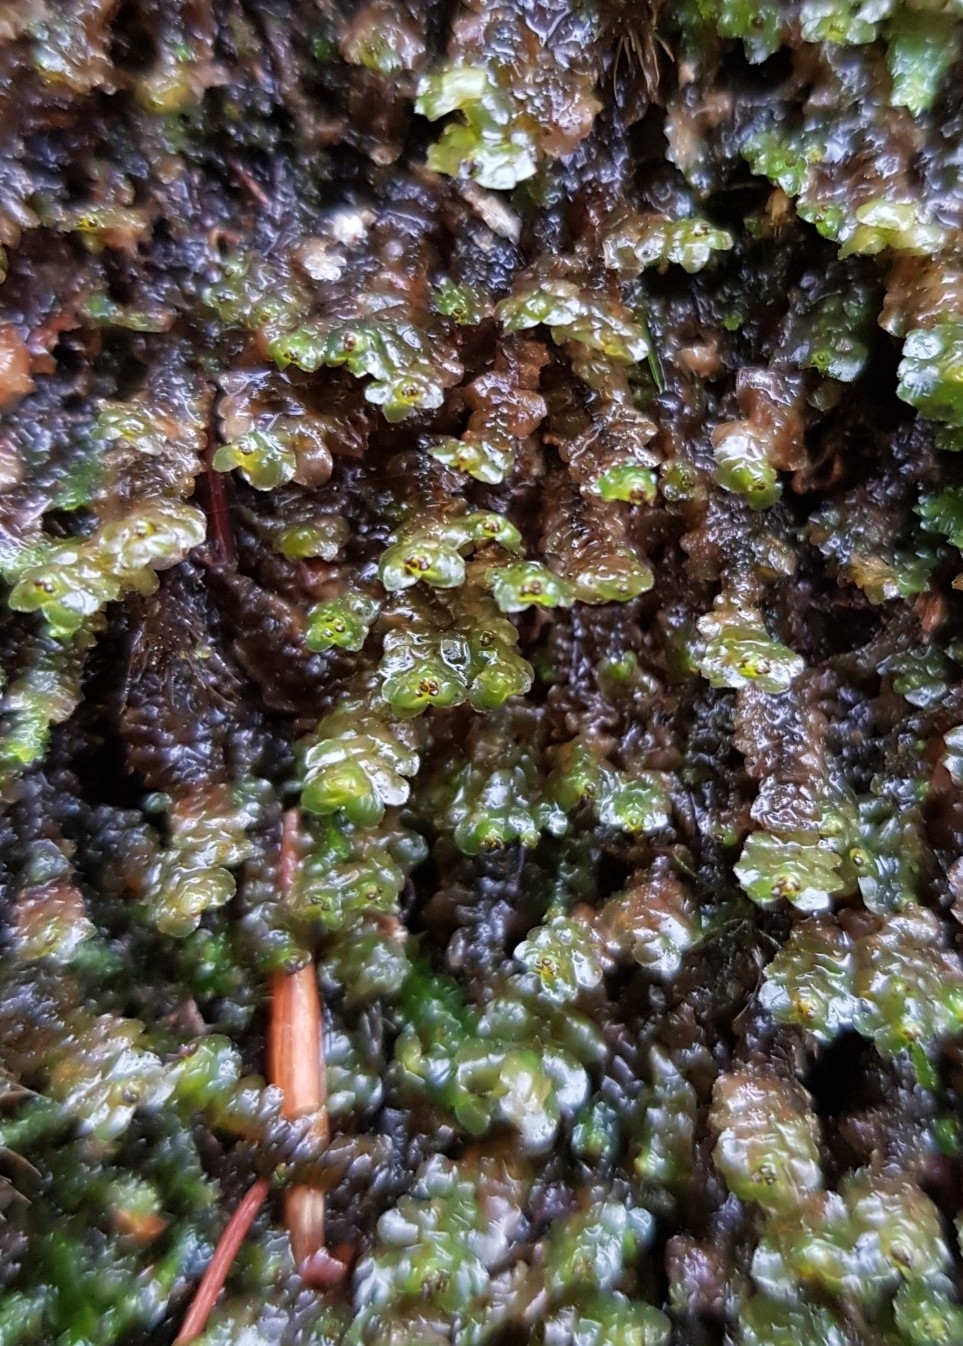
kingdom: Plantae
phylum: Marchantiophyta
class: Jungermanniopsida
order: Jungermanniales
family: Scapaniaceae
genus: Scapania
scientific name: Scapania nemorea
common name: Grove earwort
